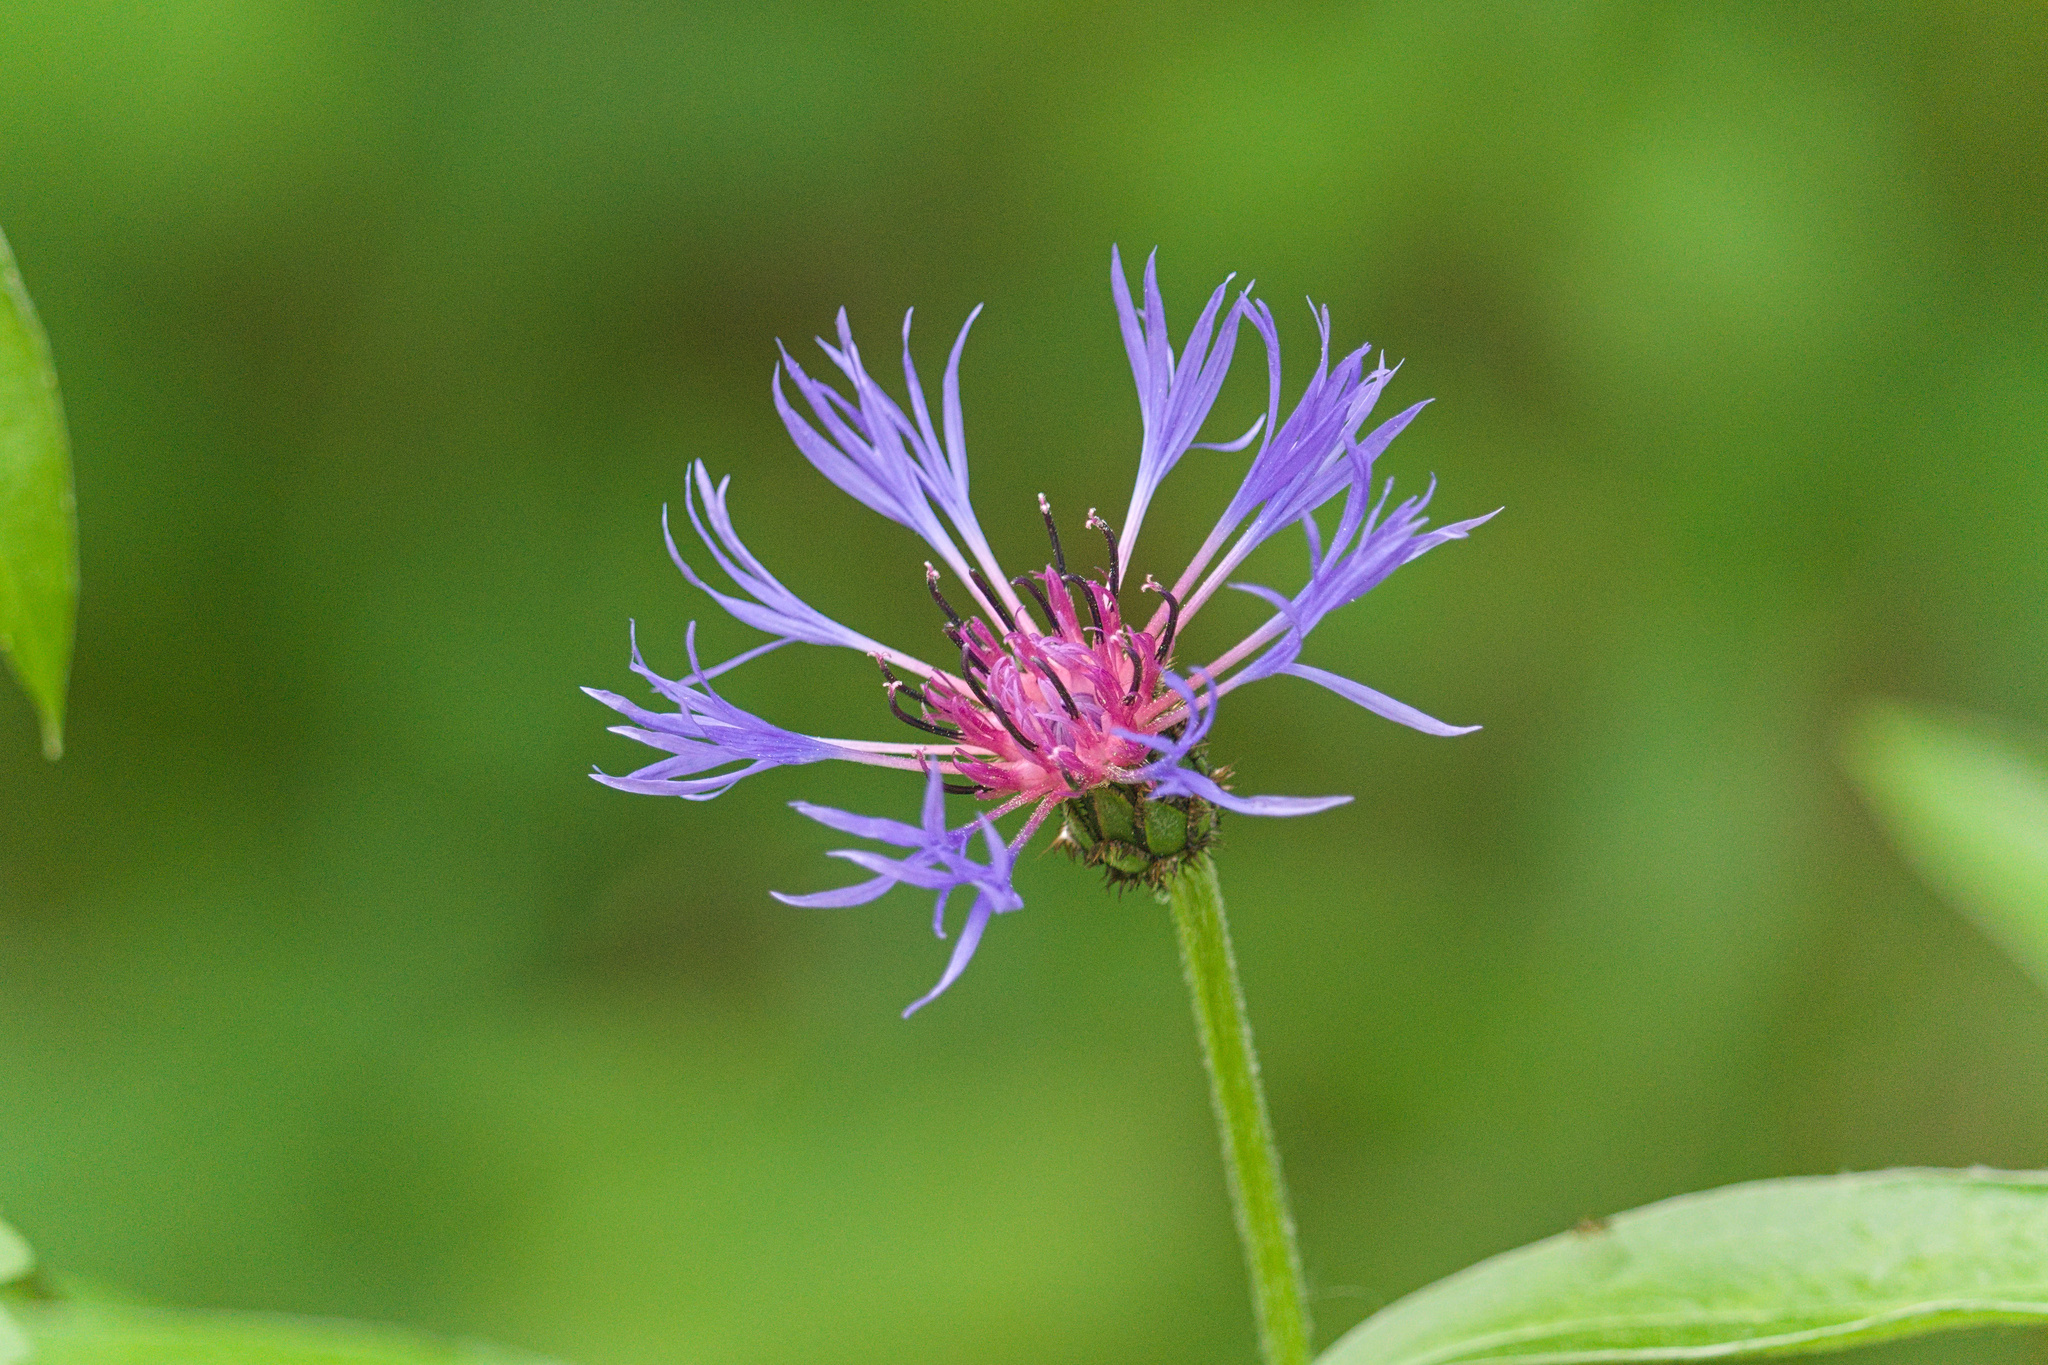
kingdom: Plantae
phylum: Tracheophyta
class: Magnoliopsida
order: Asterales
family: Asteraceae
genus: Centaurea
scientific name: Centaurea montana
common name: Perennial cornflower
